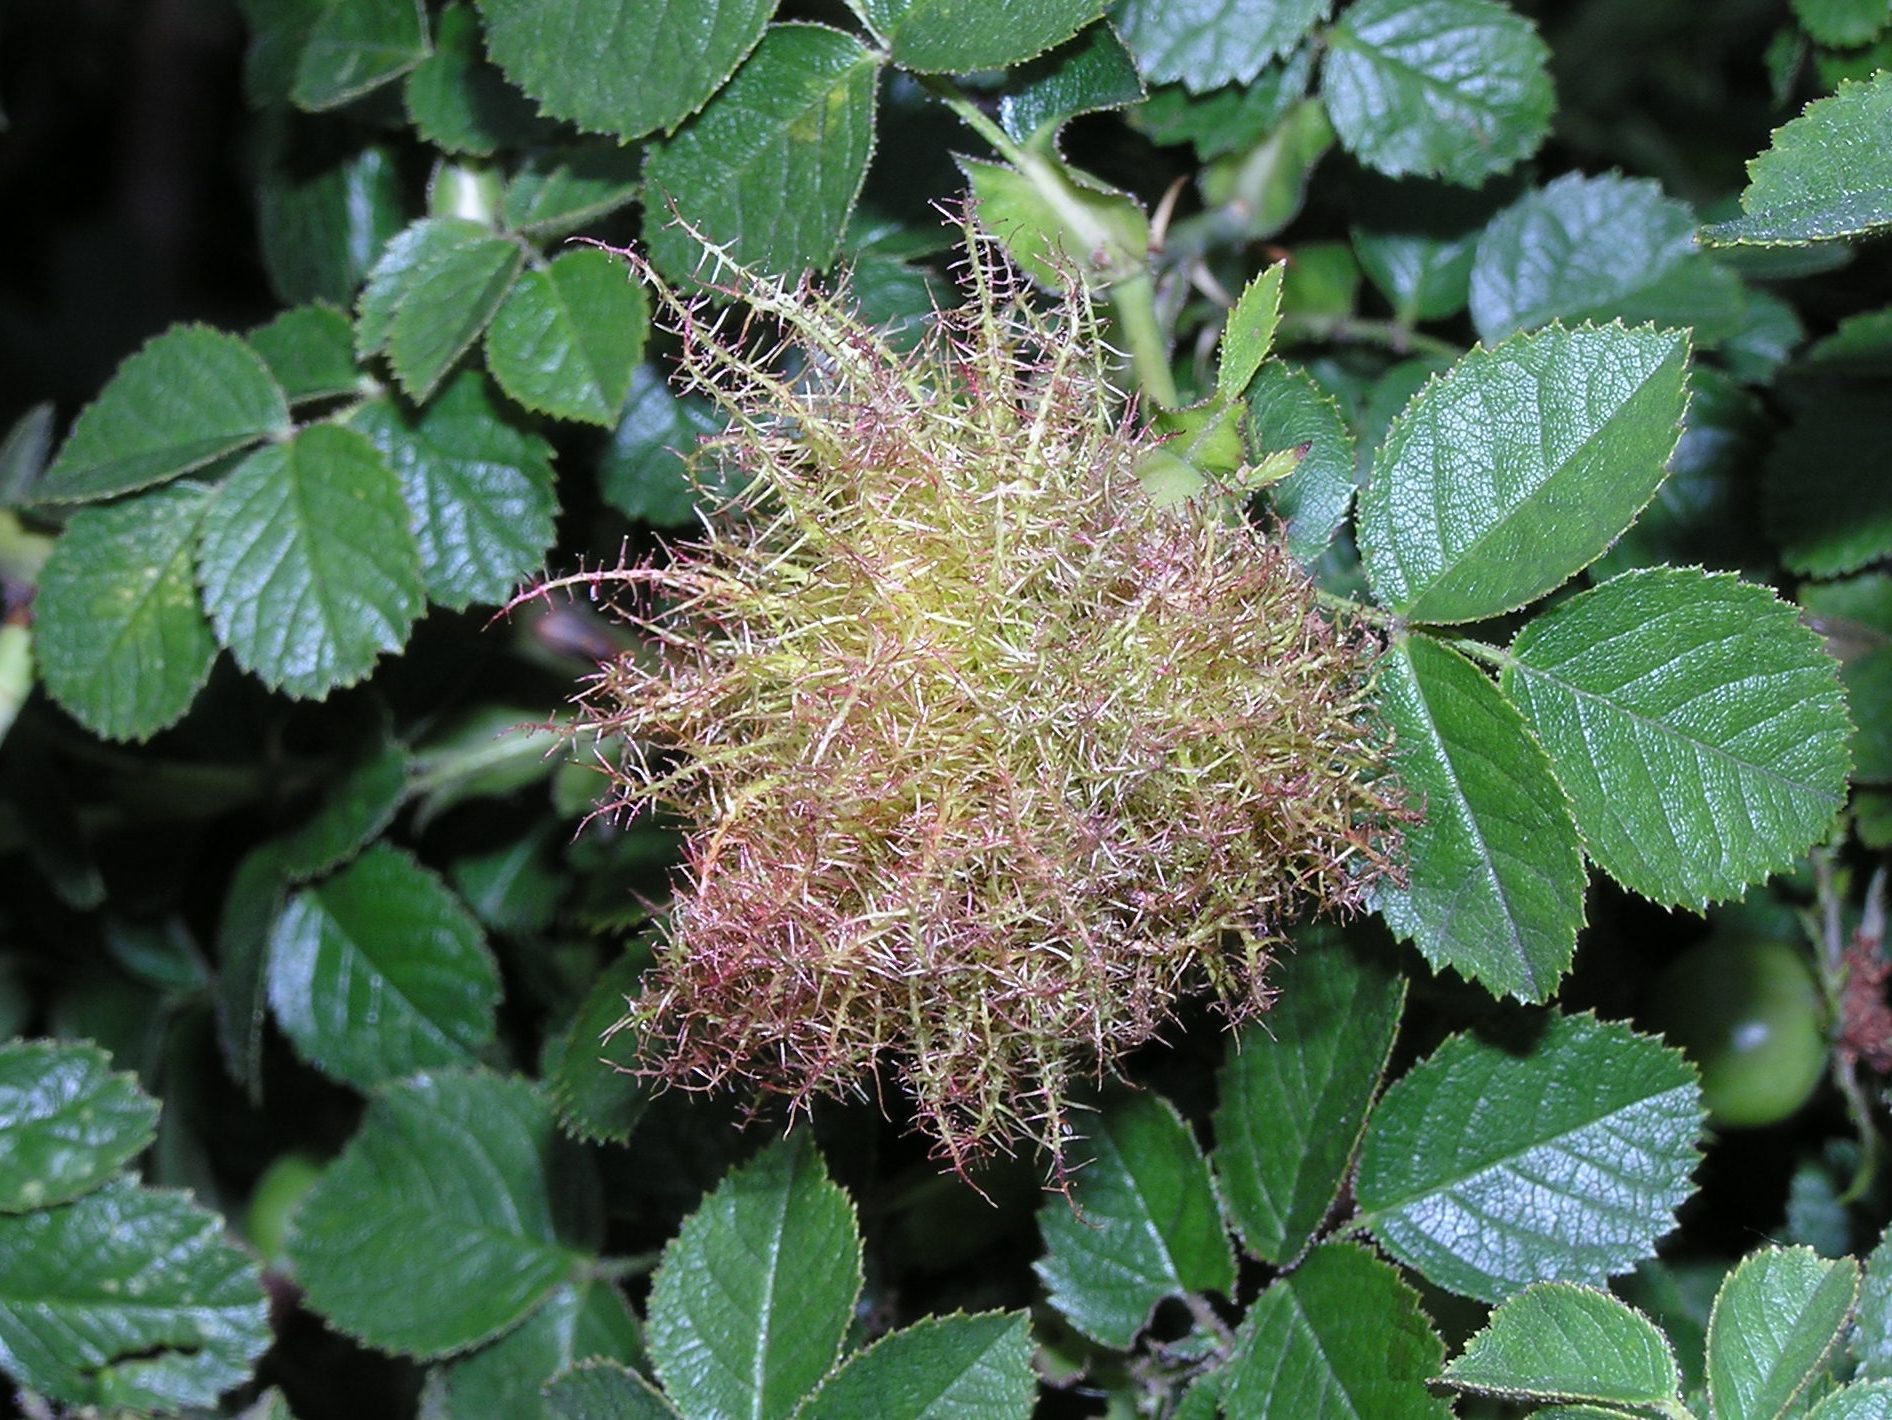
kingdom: Animalia
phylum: Arthropoda
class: Insecta
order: Hymenoptera
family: Cynipidae
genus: Diplolepis
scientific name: Diplolepis rosae
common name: Bedeguar gall
